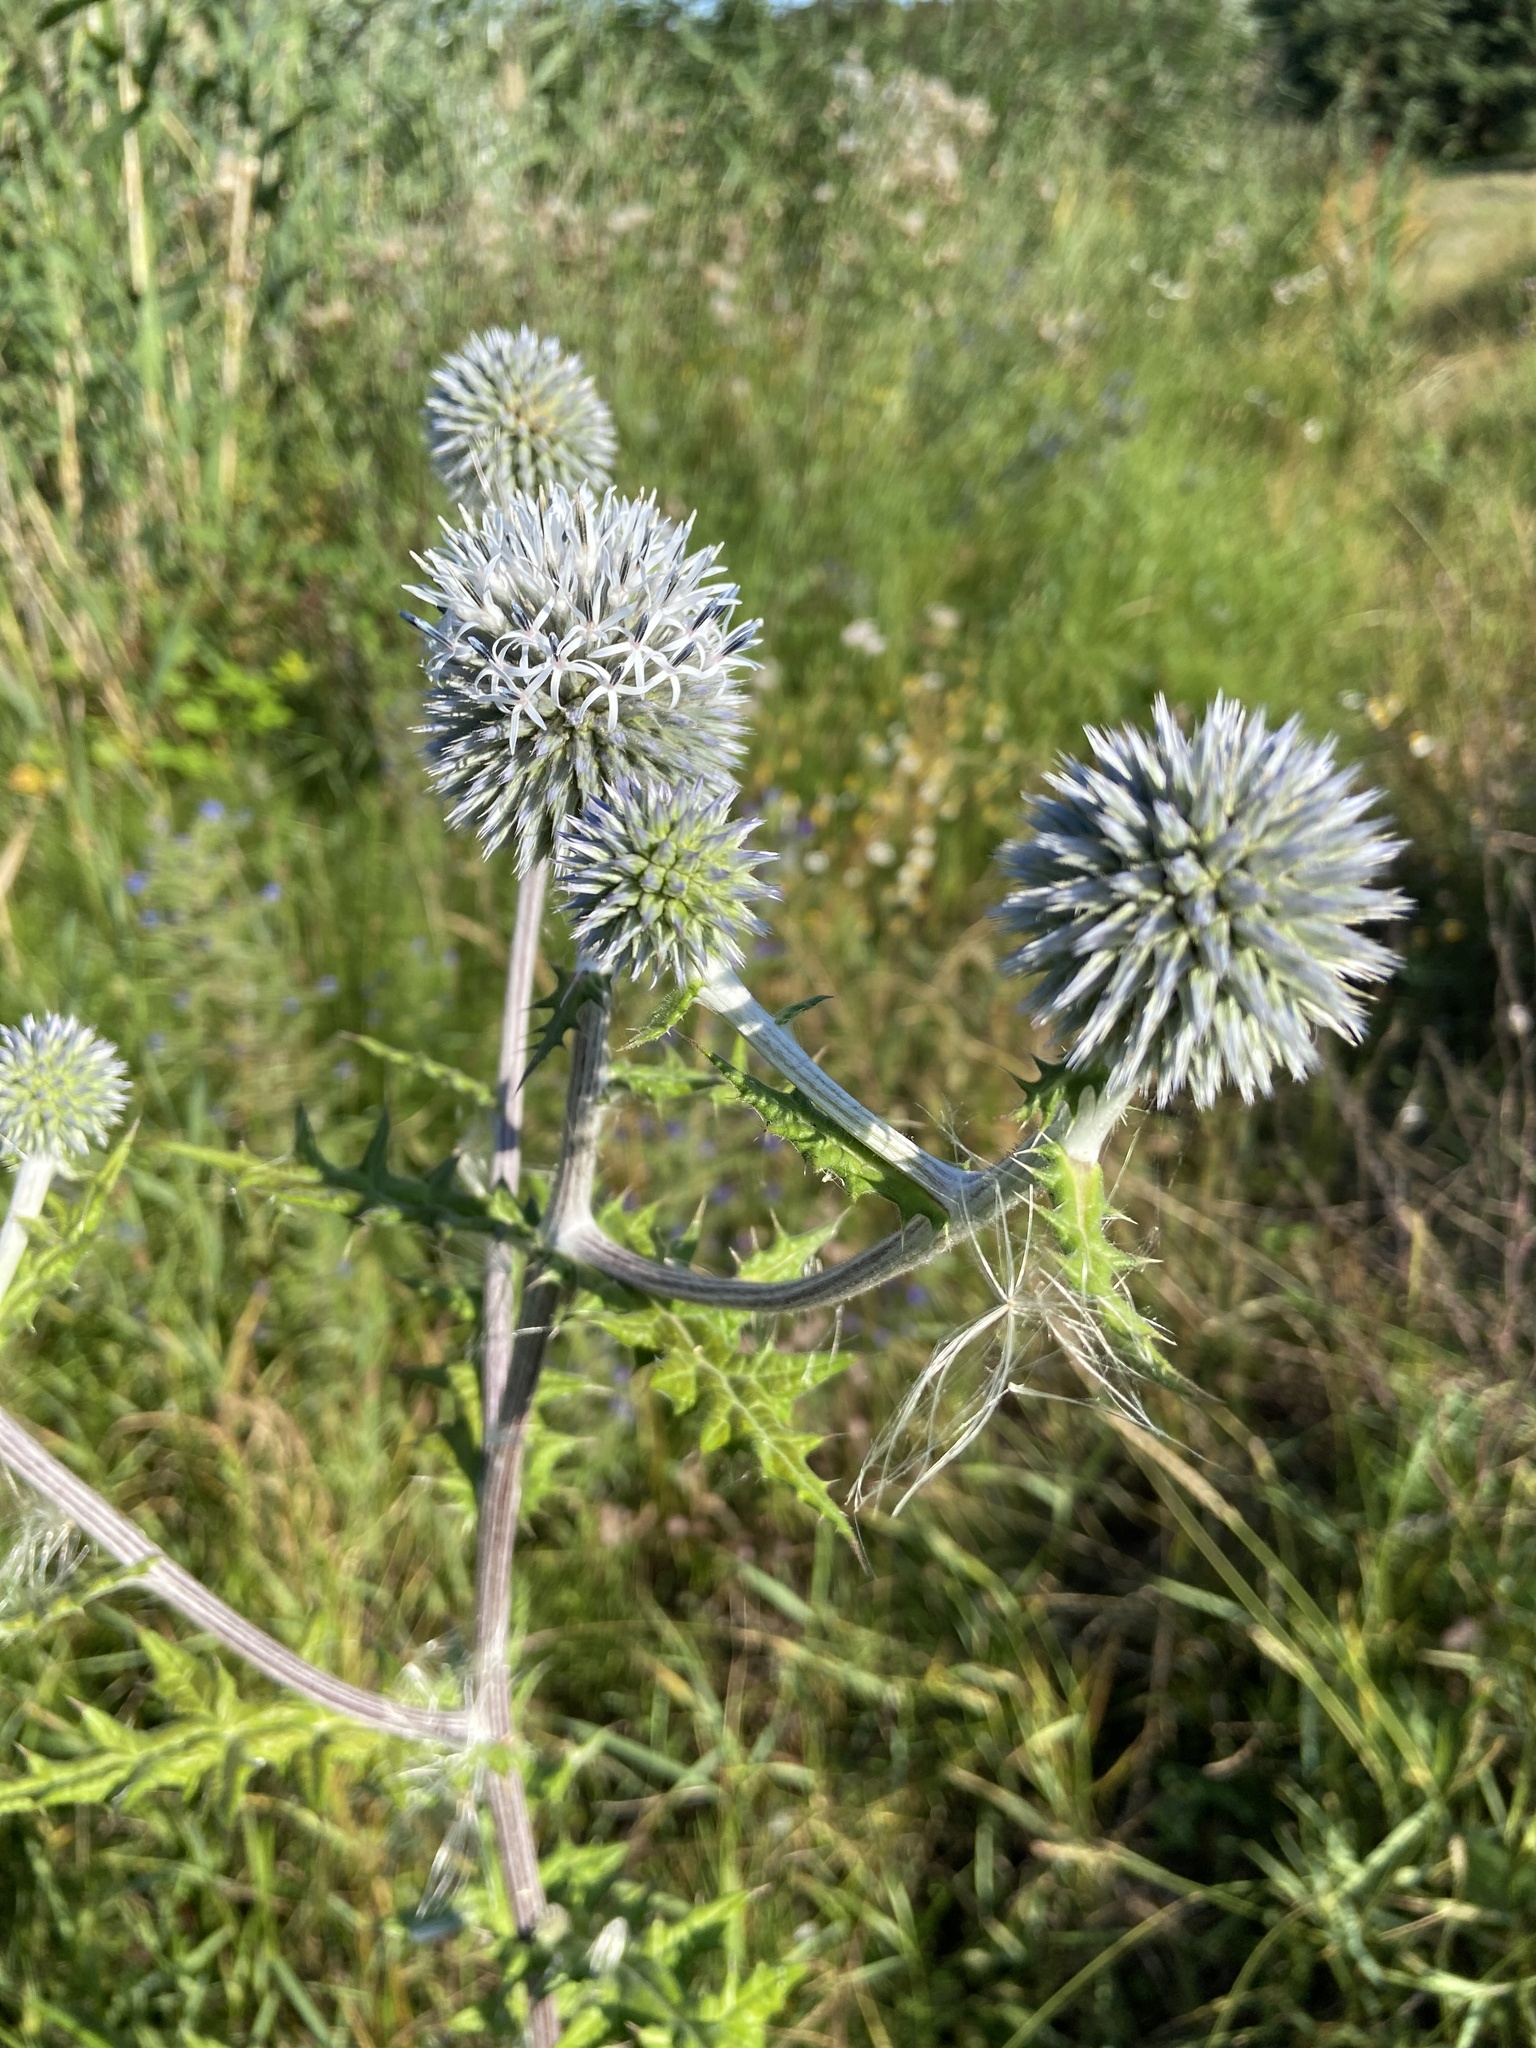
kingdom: Plantae
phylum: Tracheophyta
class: Magnoliopsida
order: Asterales
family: Asteraceae
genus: Echinops
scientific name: Echinops sphaerocephalus
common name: Glandular globe-thistle
